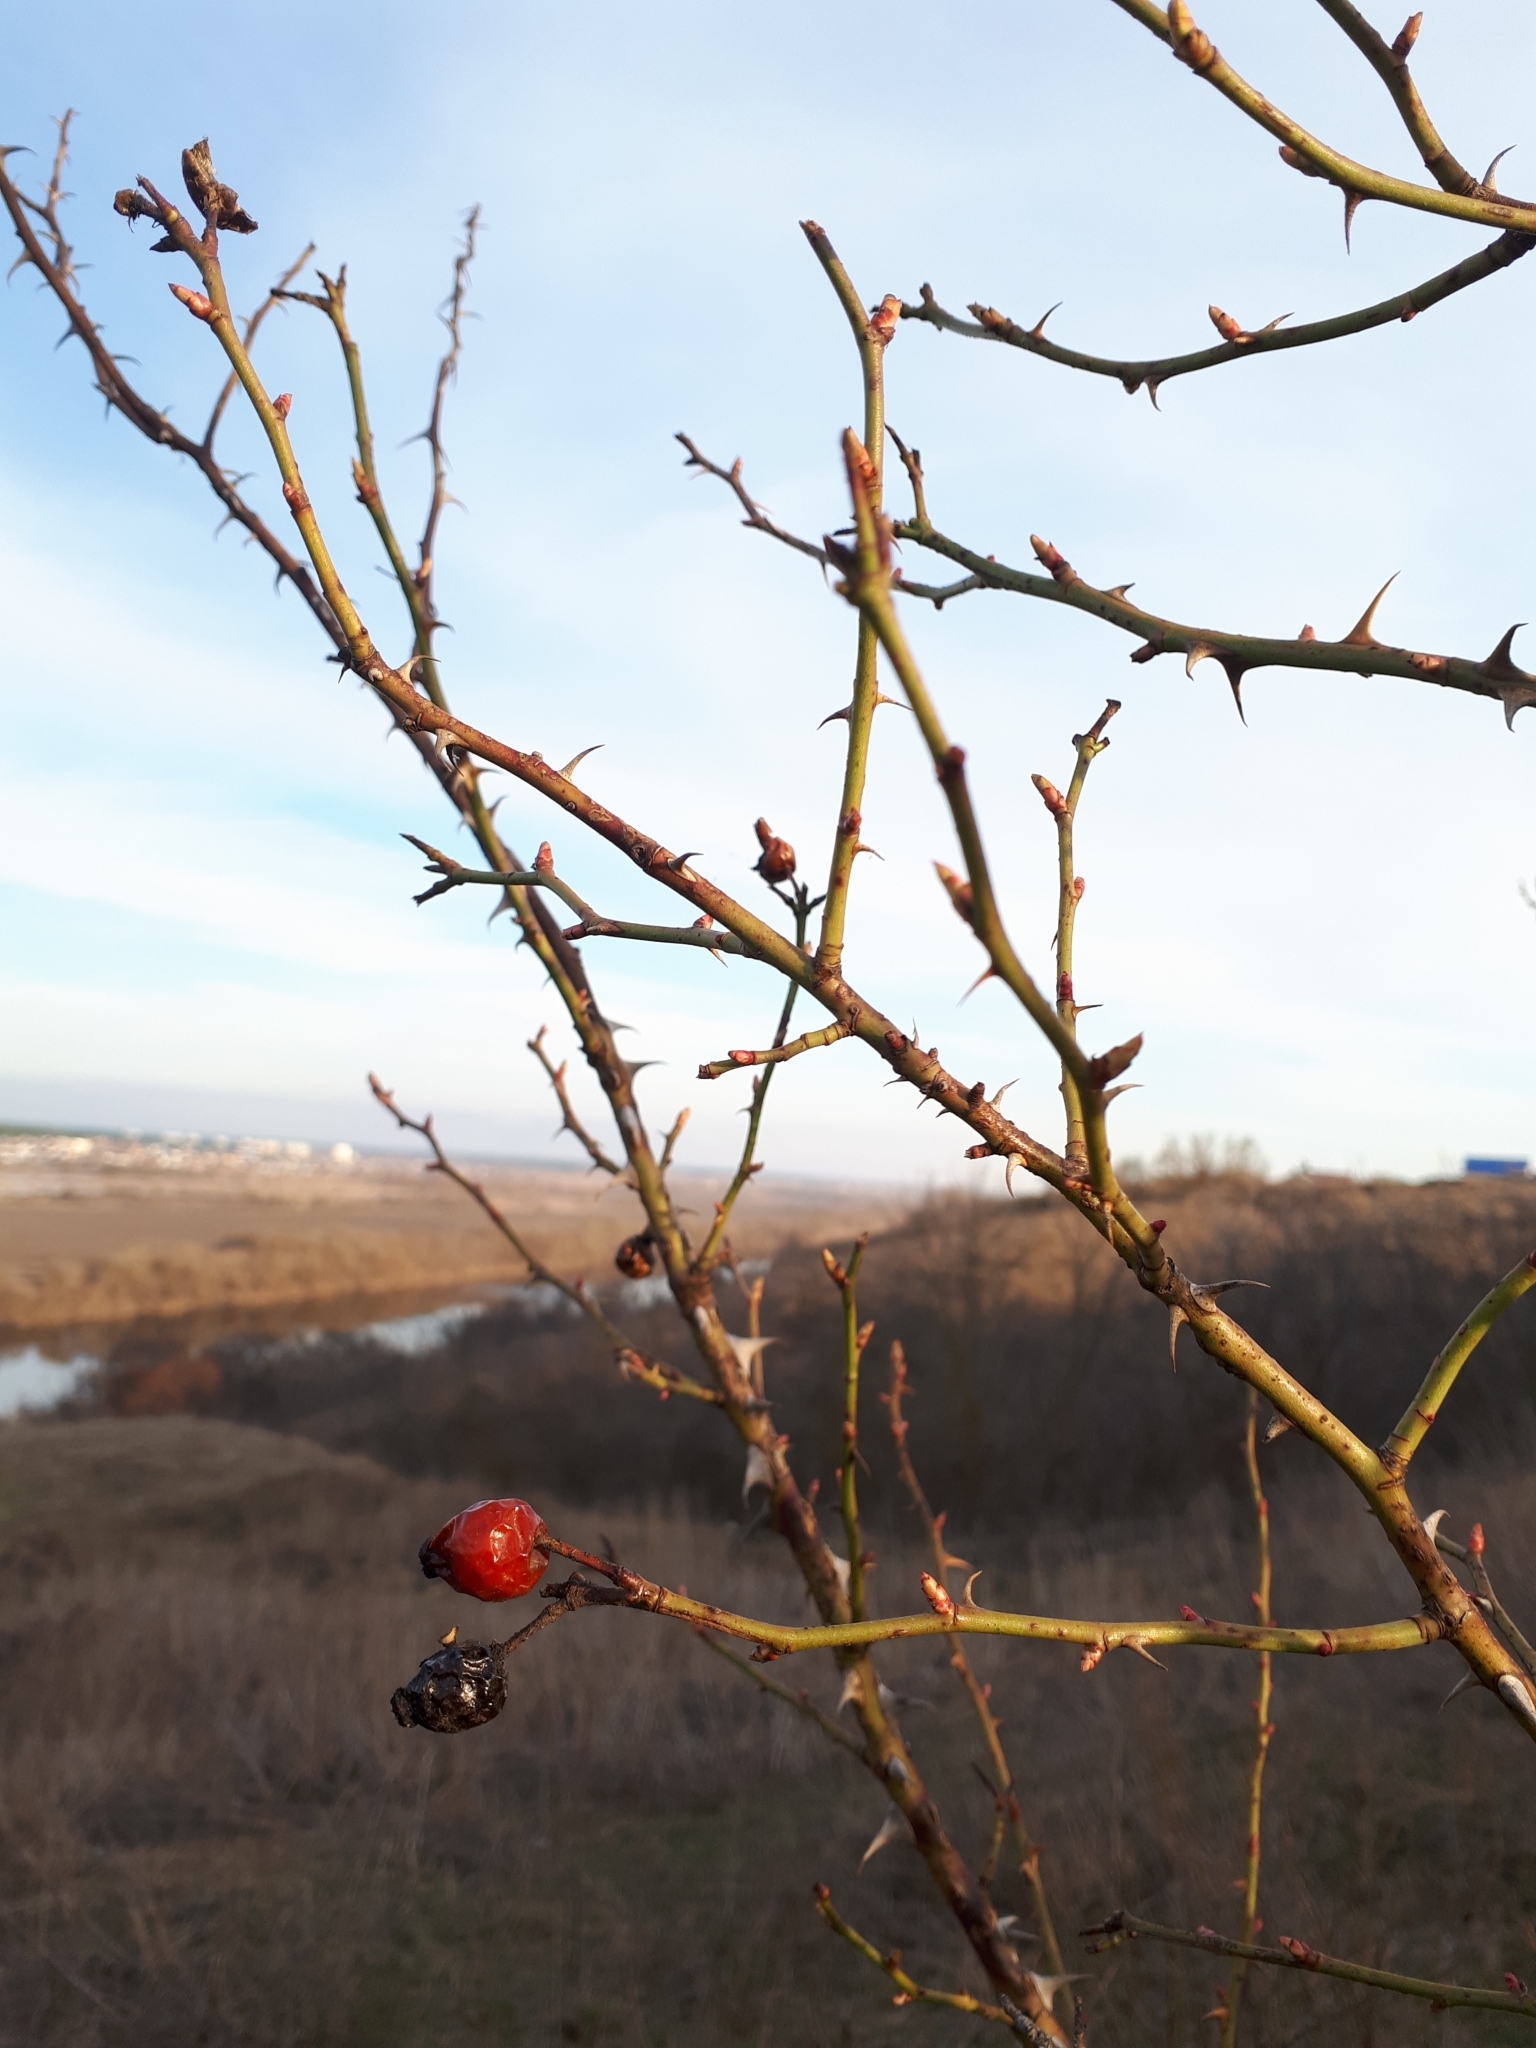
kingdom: Plantae
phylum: Tracheophyta
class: Magnoliopsida
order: Rosales
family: Rosaceae
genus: Rosa
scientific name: Rosa
